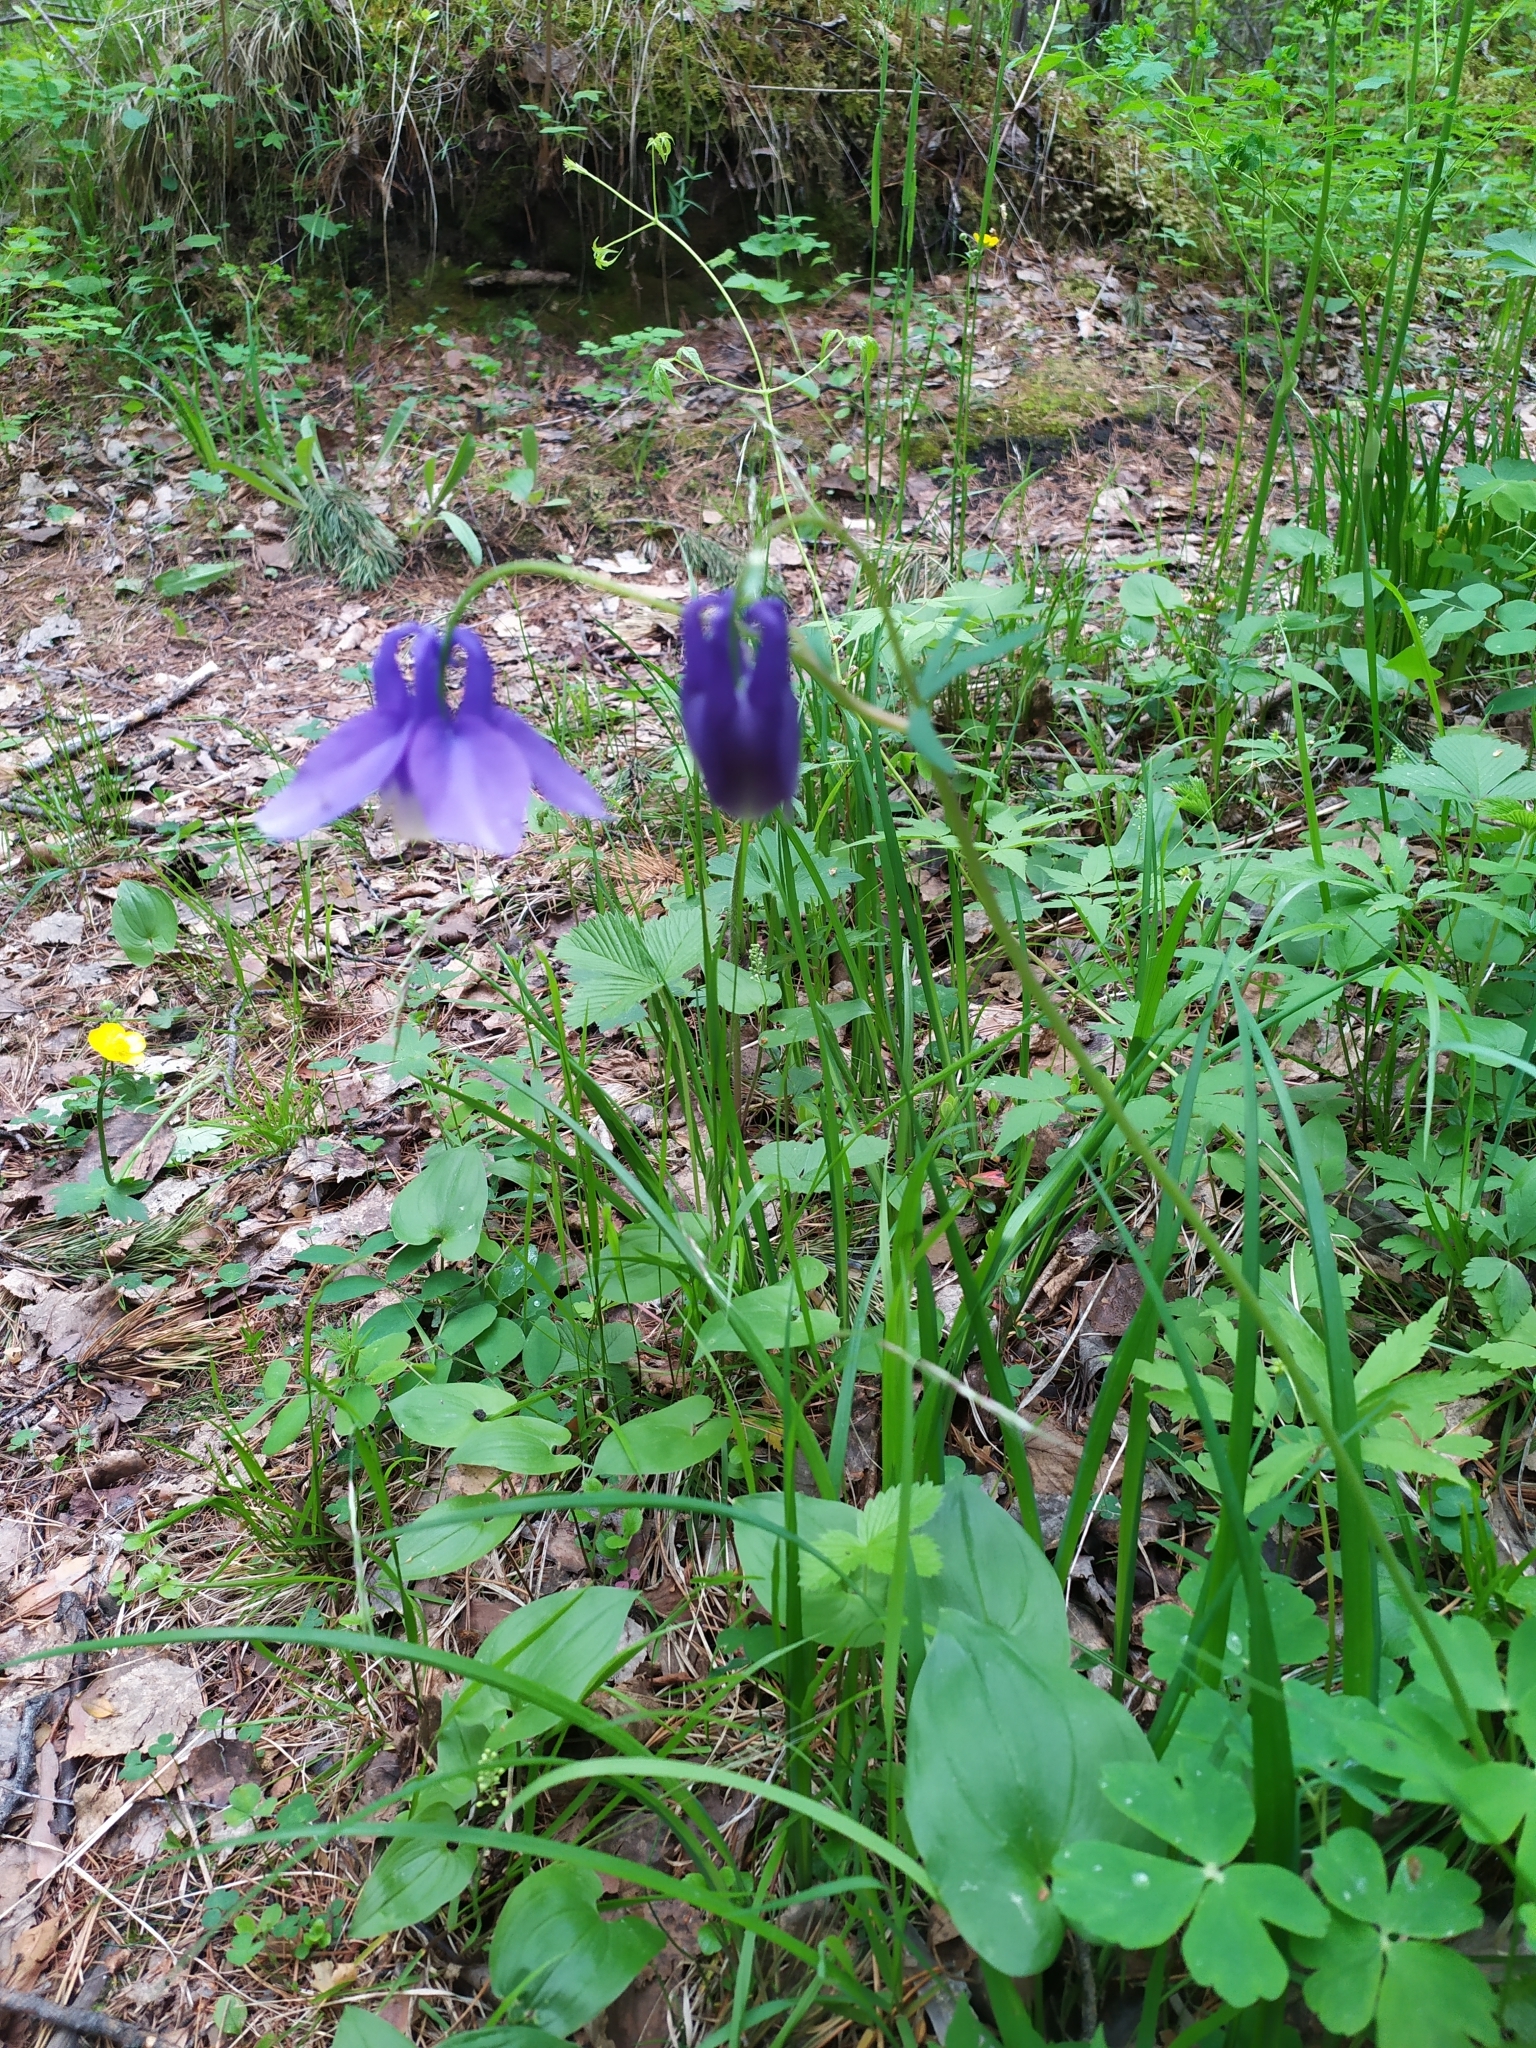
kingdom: Plantae
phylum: Tracheophyta
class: Magnoliopsida
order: Ranunculales
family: Ranunculaceae
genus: Aquilegia
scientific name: Aquilegia sibirica
